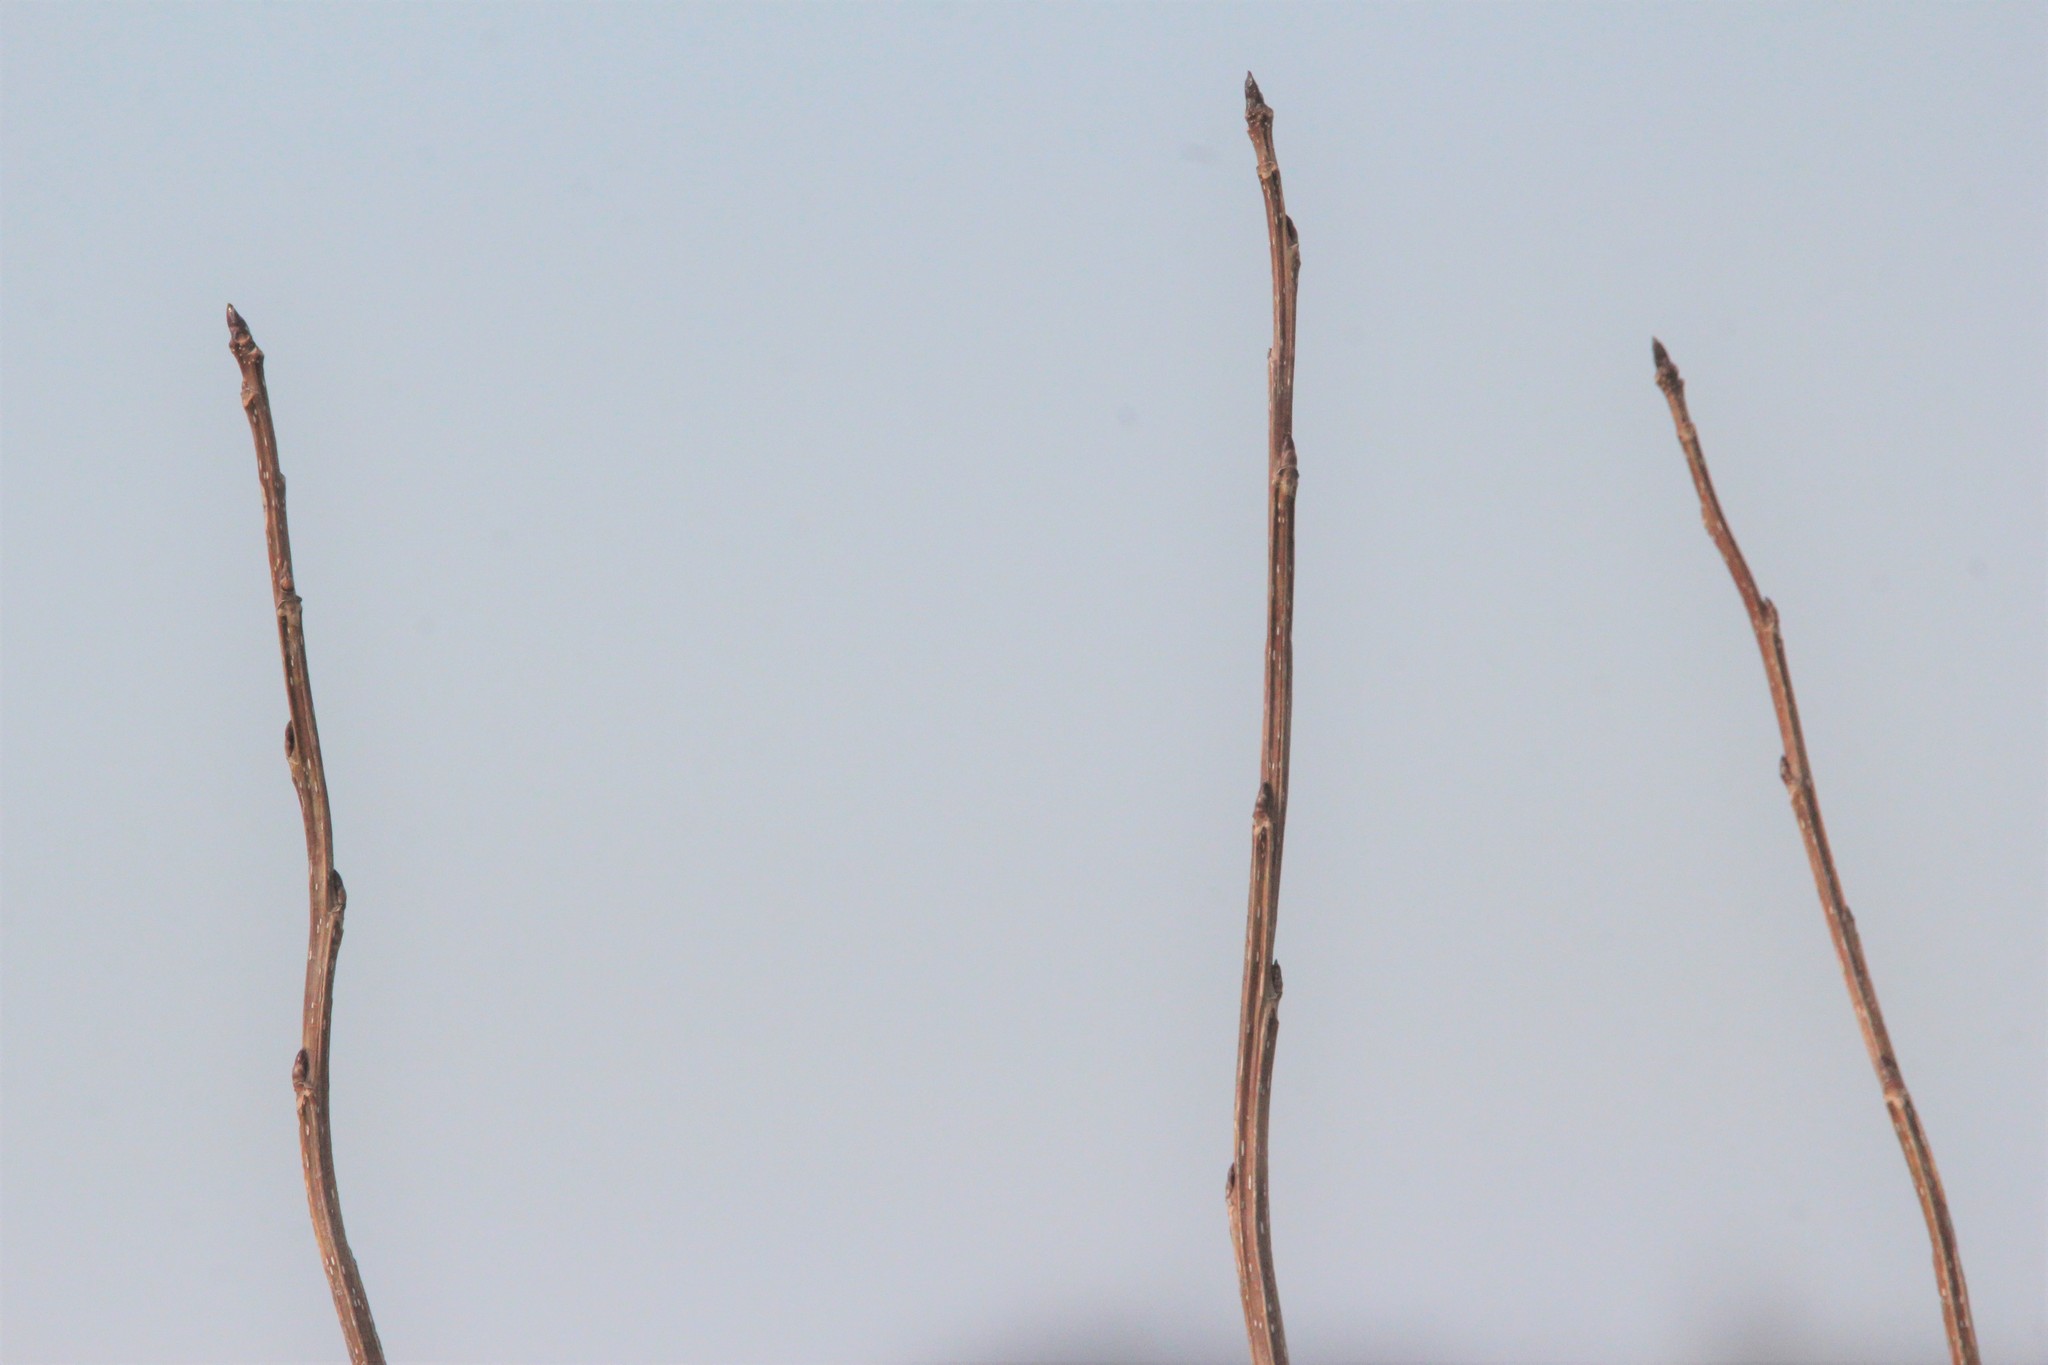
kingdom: Plantae
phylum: Tracheophyta
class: Magnoliopsida
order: Malpighiales
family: Salicaceae
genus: Populus
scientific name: Populus deltoides
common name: Eastern cottonwood
